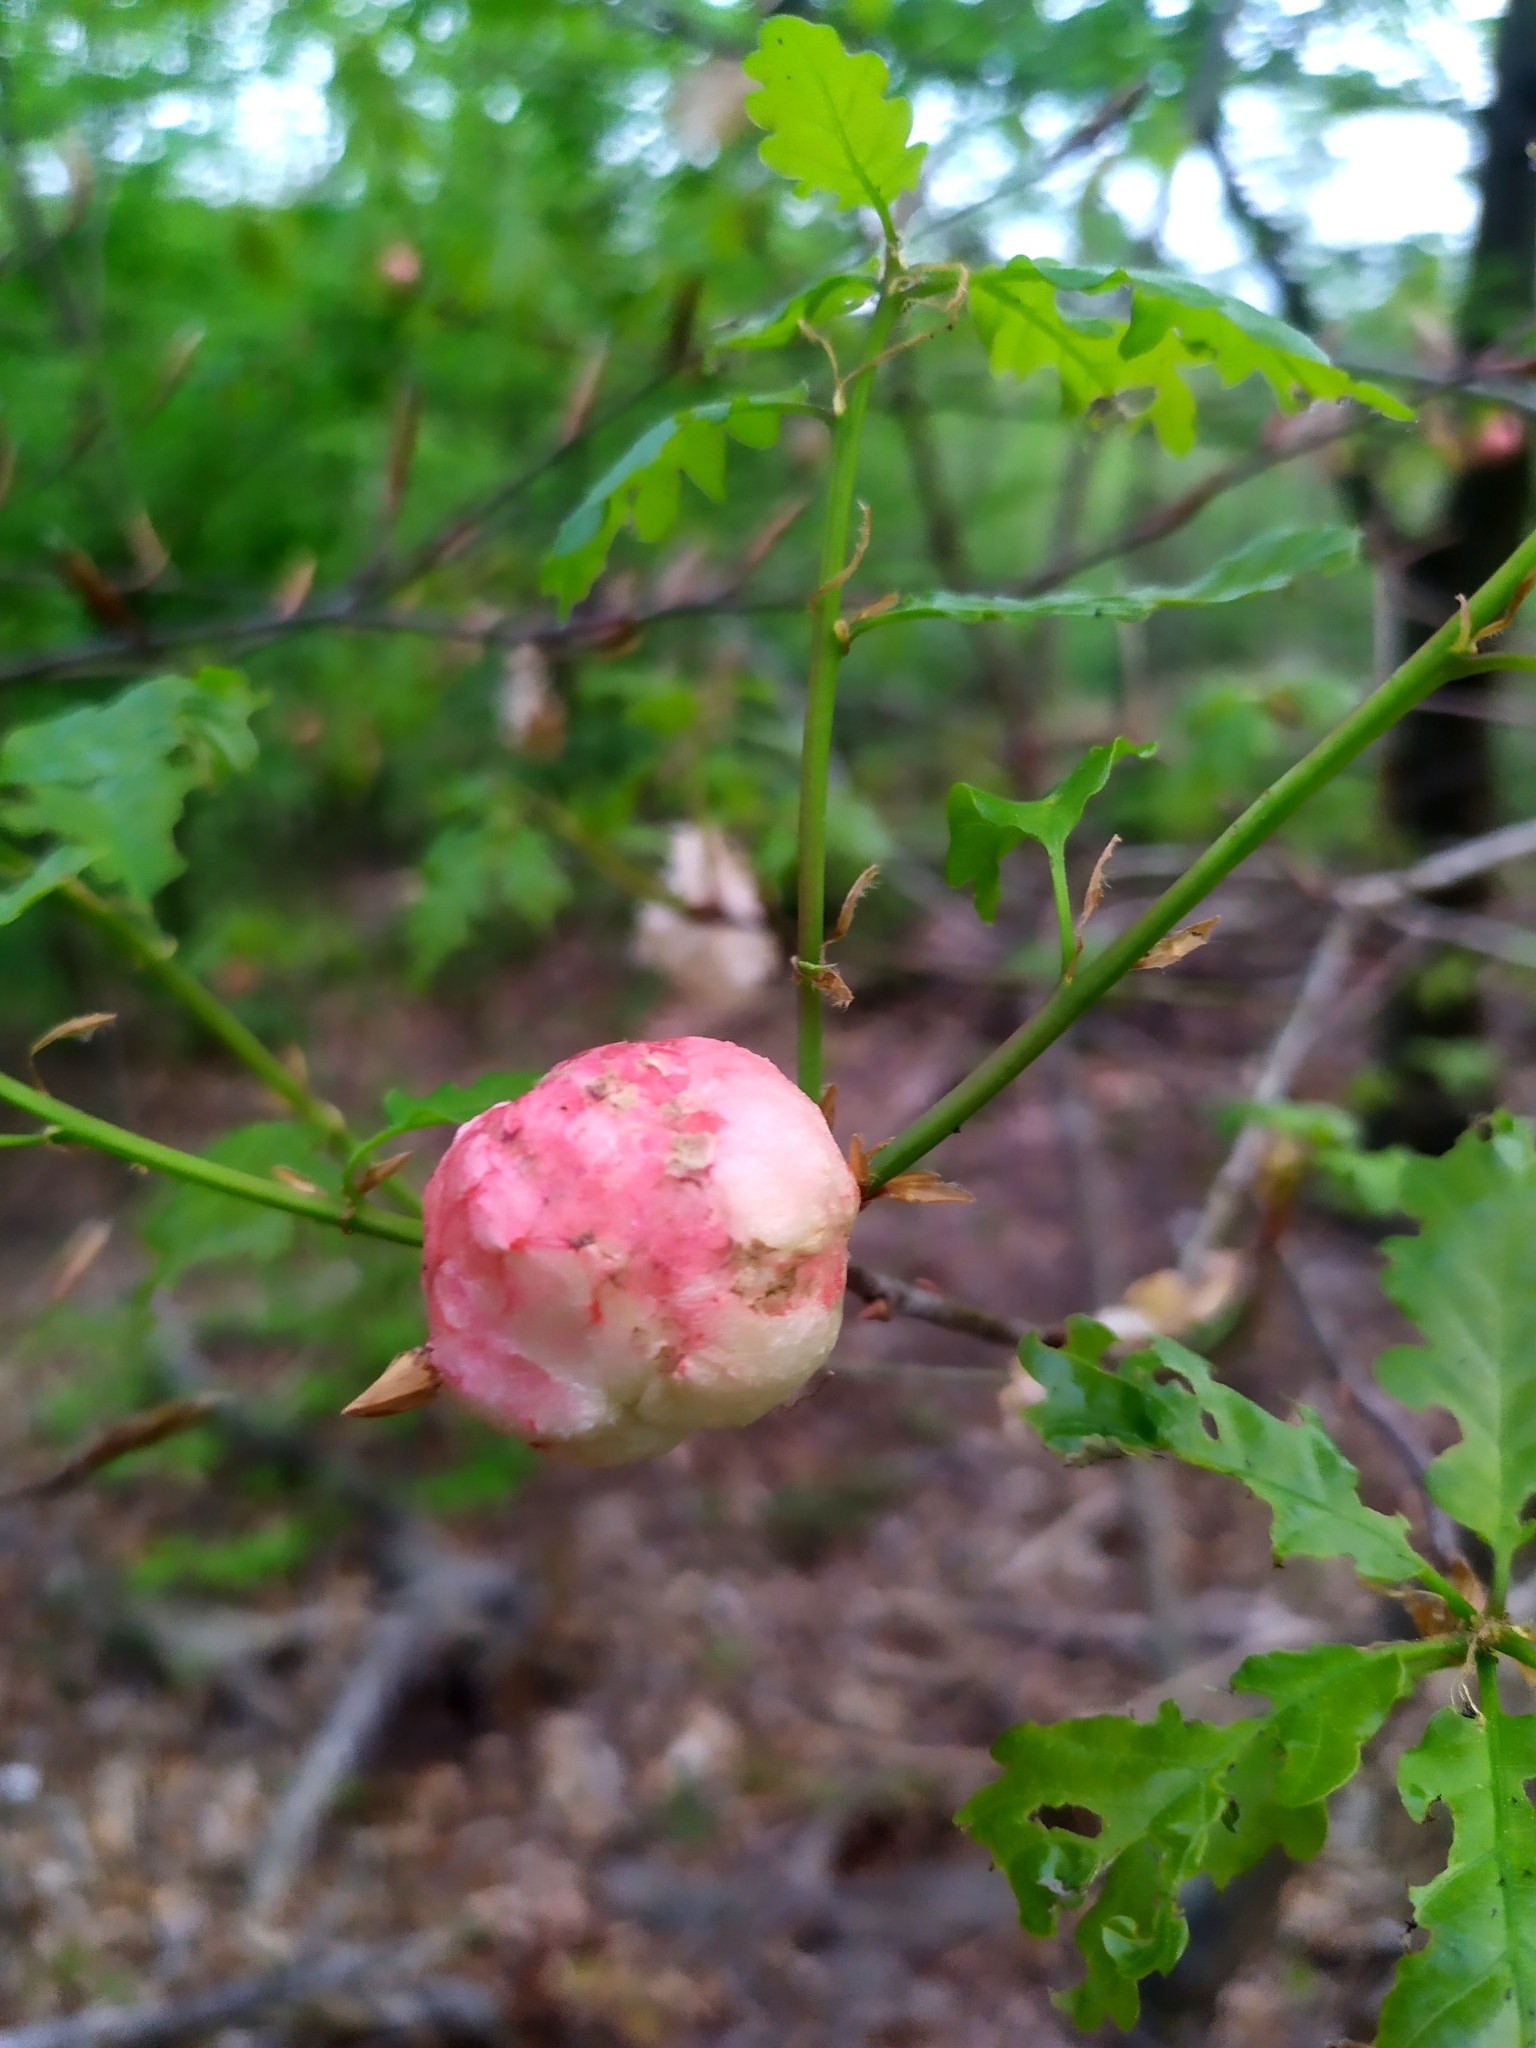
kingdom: Animalia
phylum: Arthropoda
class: Insecta
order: Hymenoptera
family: Cynipidae
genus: Biorhiza
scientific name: Biorhiza pallida
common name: Oak apple
